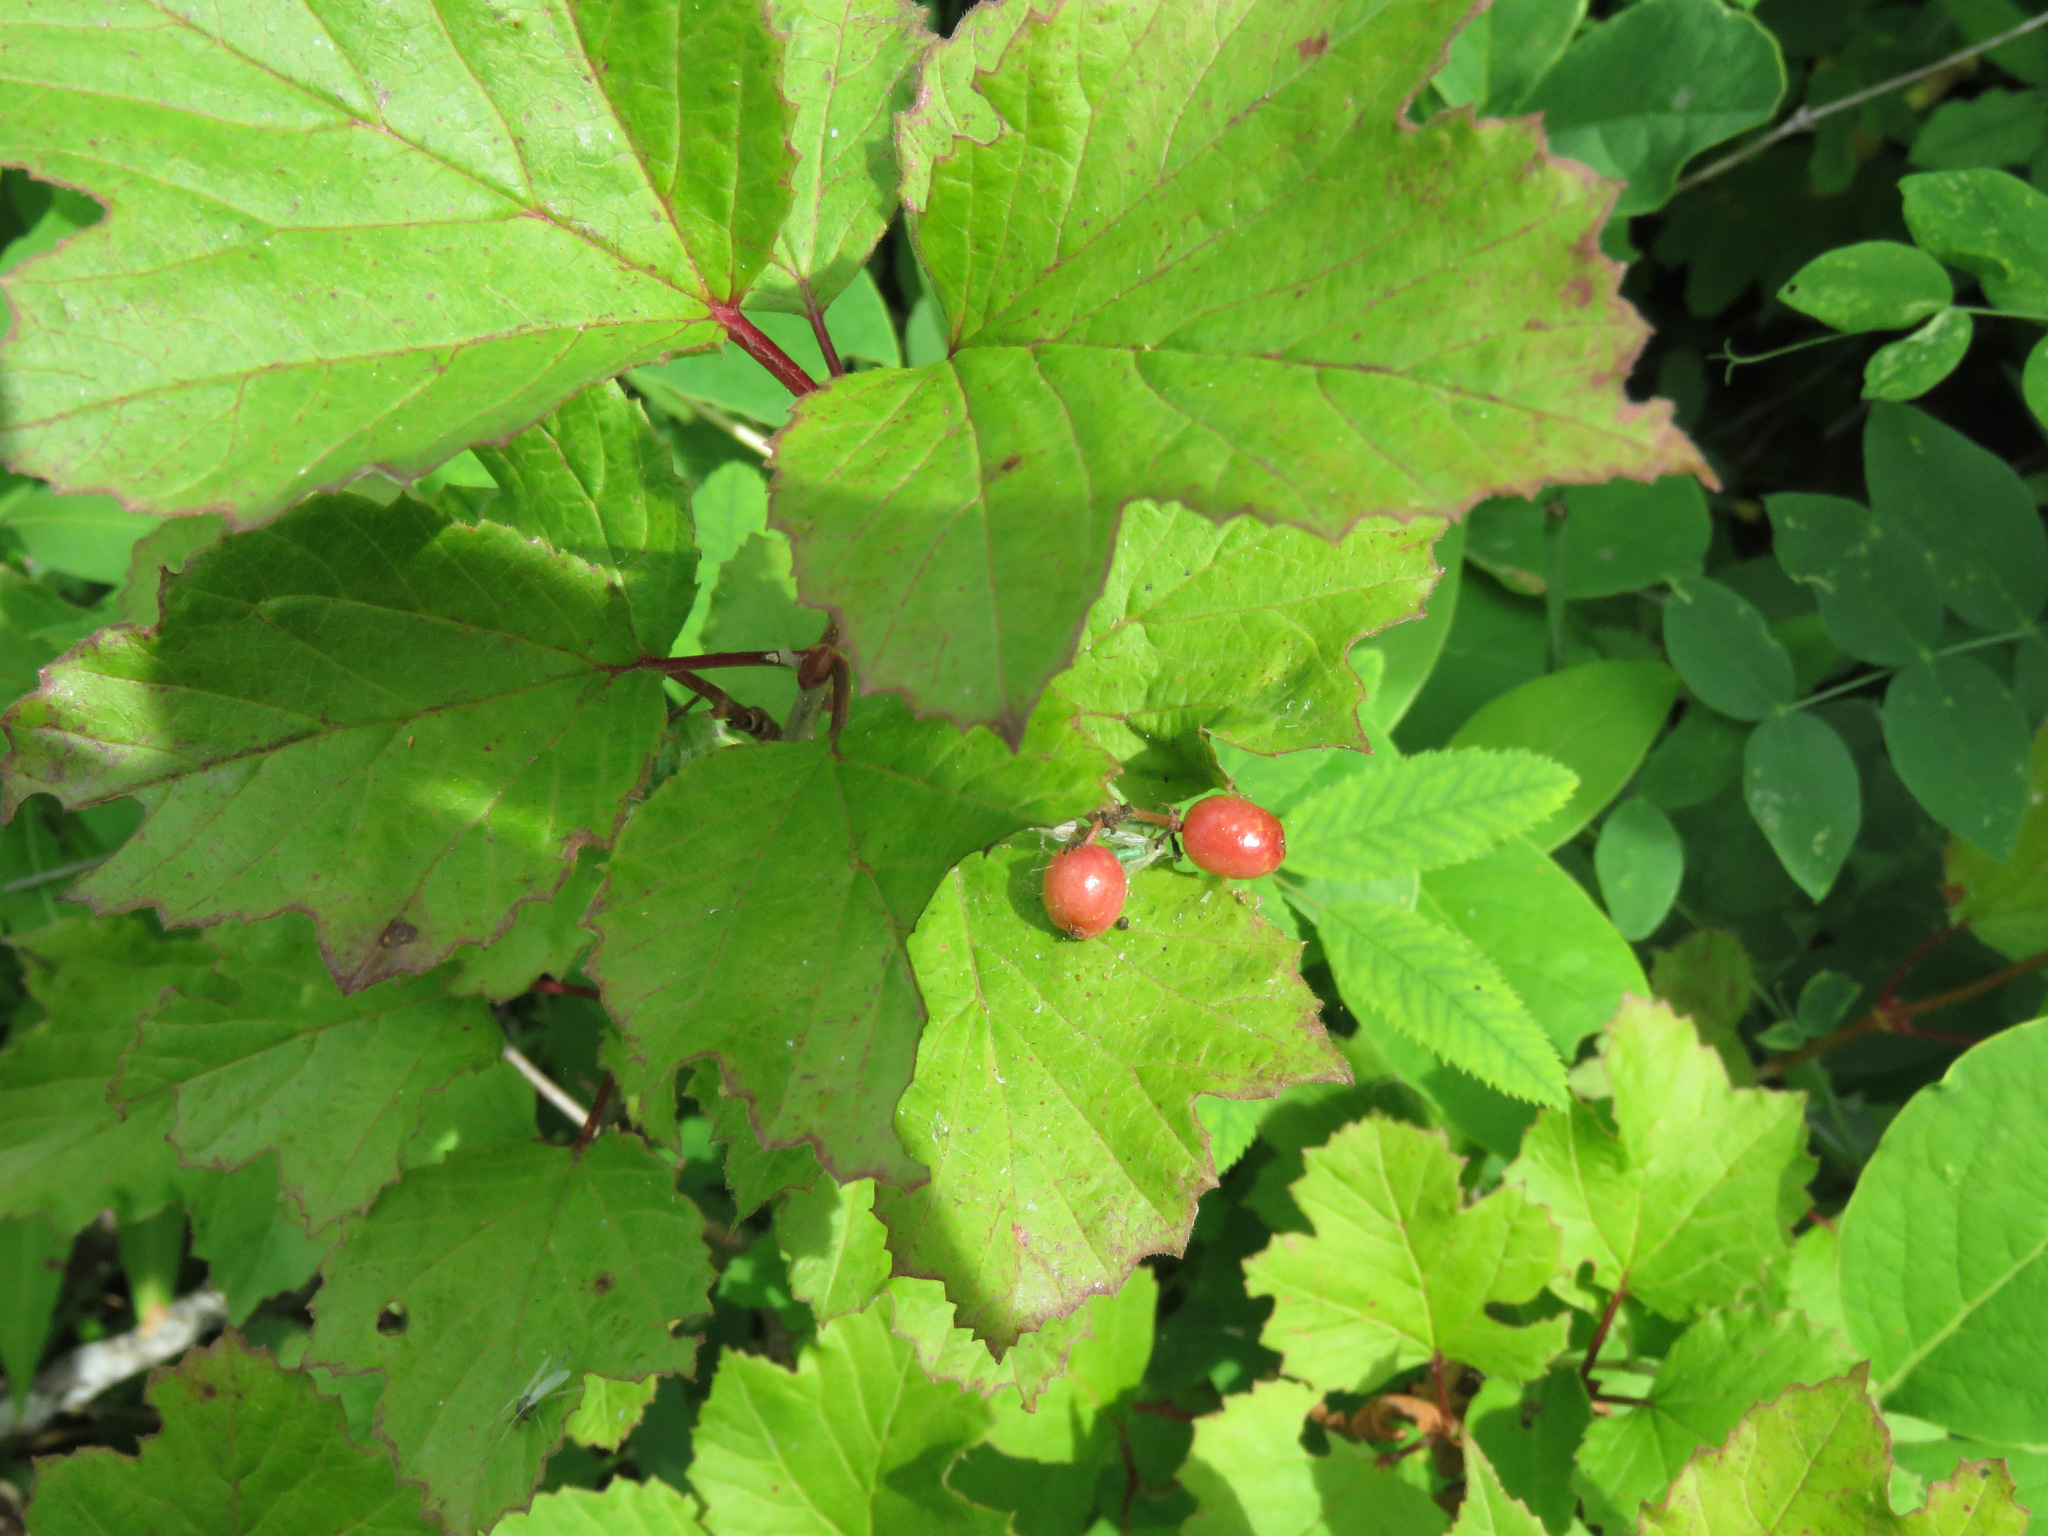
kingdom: Plantae
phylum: Tracheophyta
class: Magnoliopsida
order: Dipsacales
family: Viburnaceae
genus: Viburnum
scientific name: Viburnum edule
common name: Mooseberry
